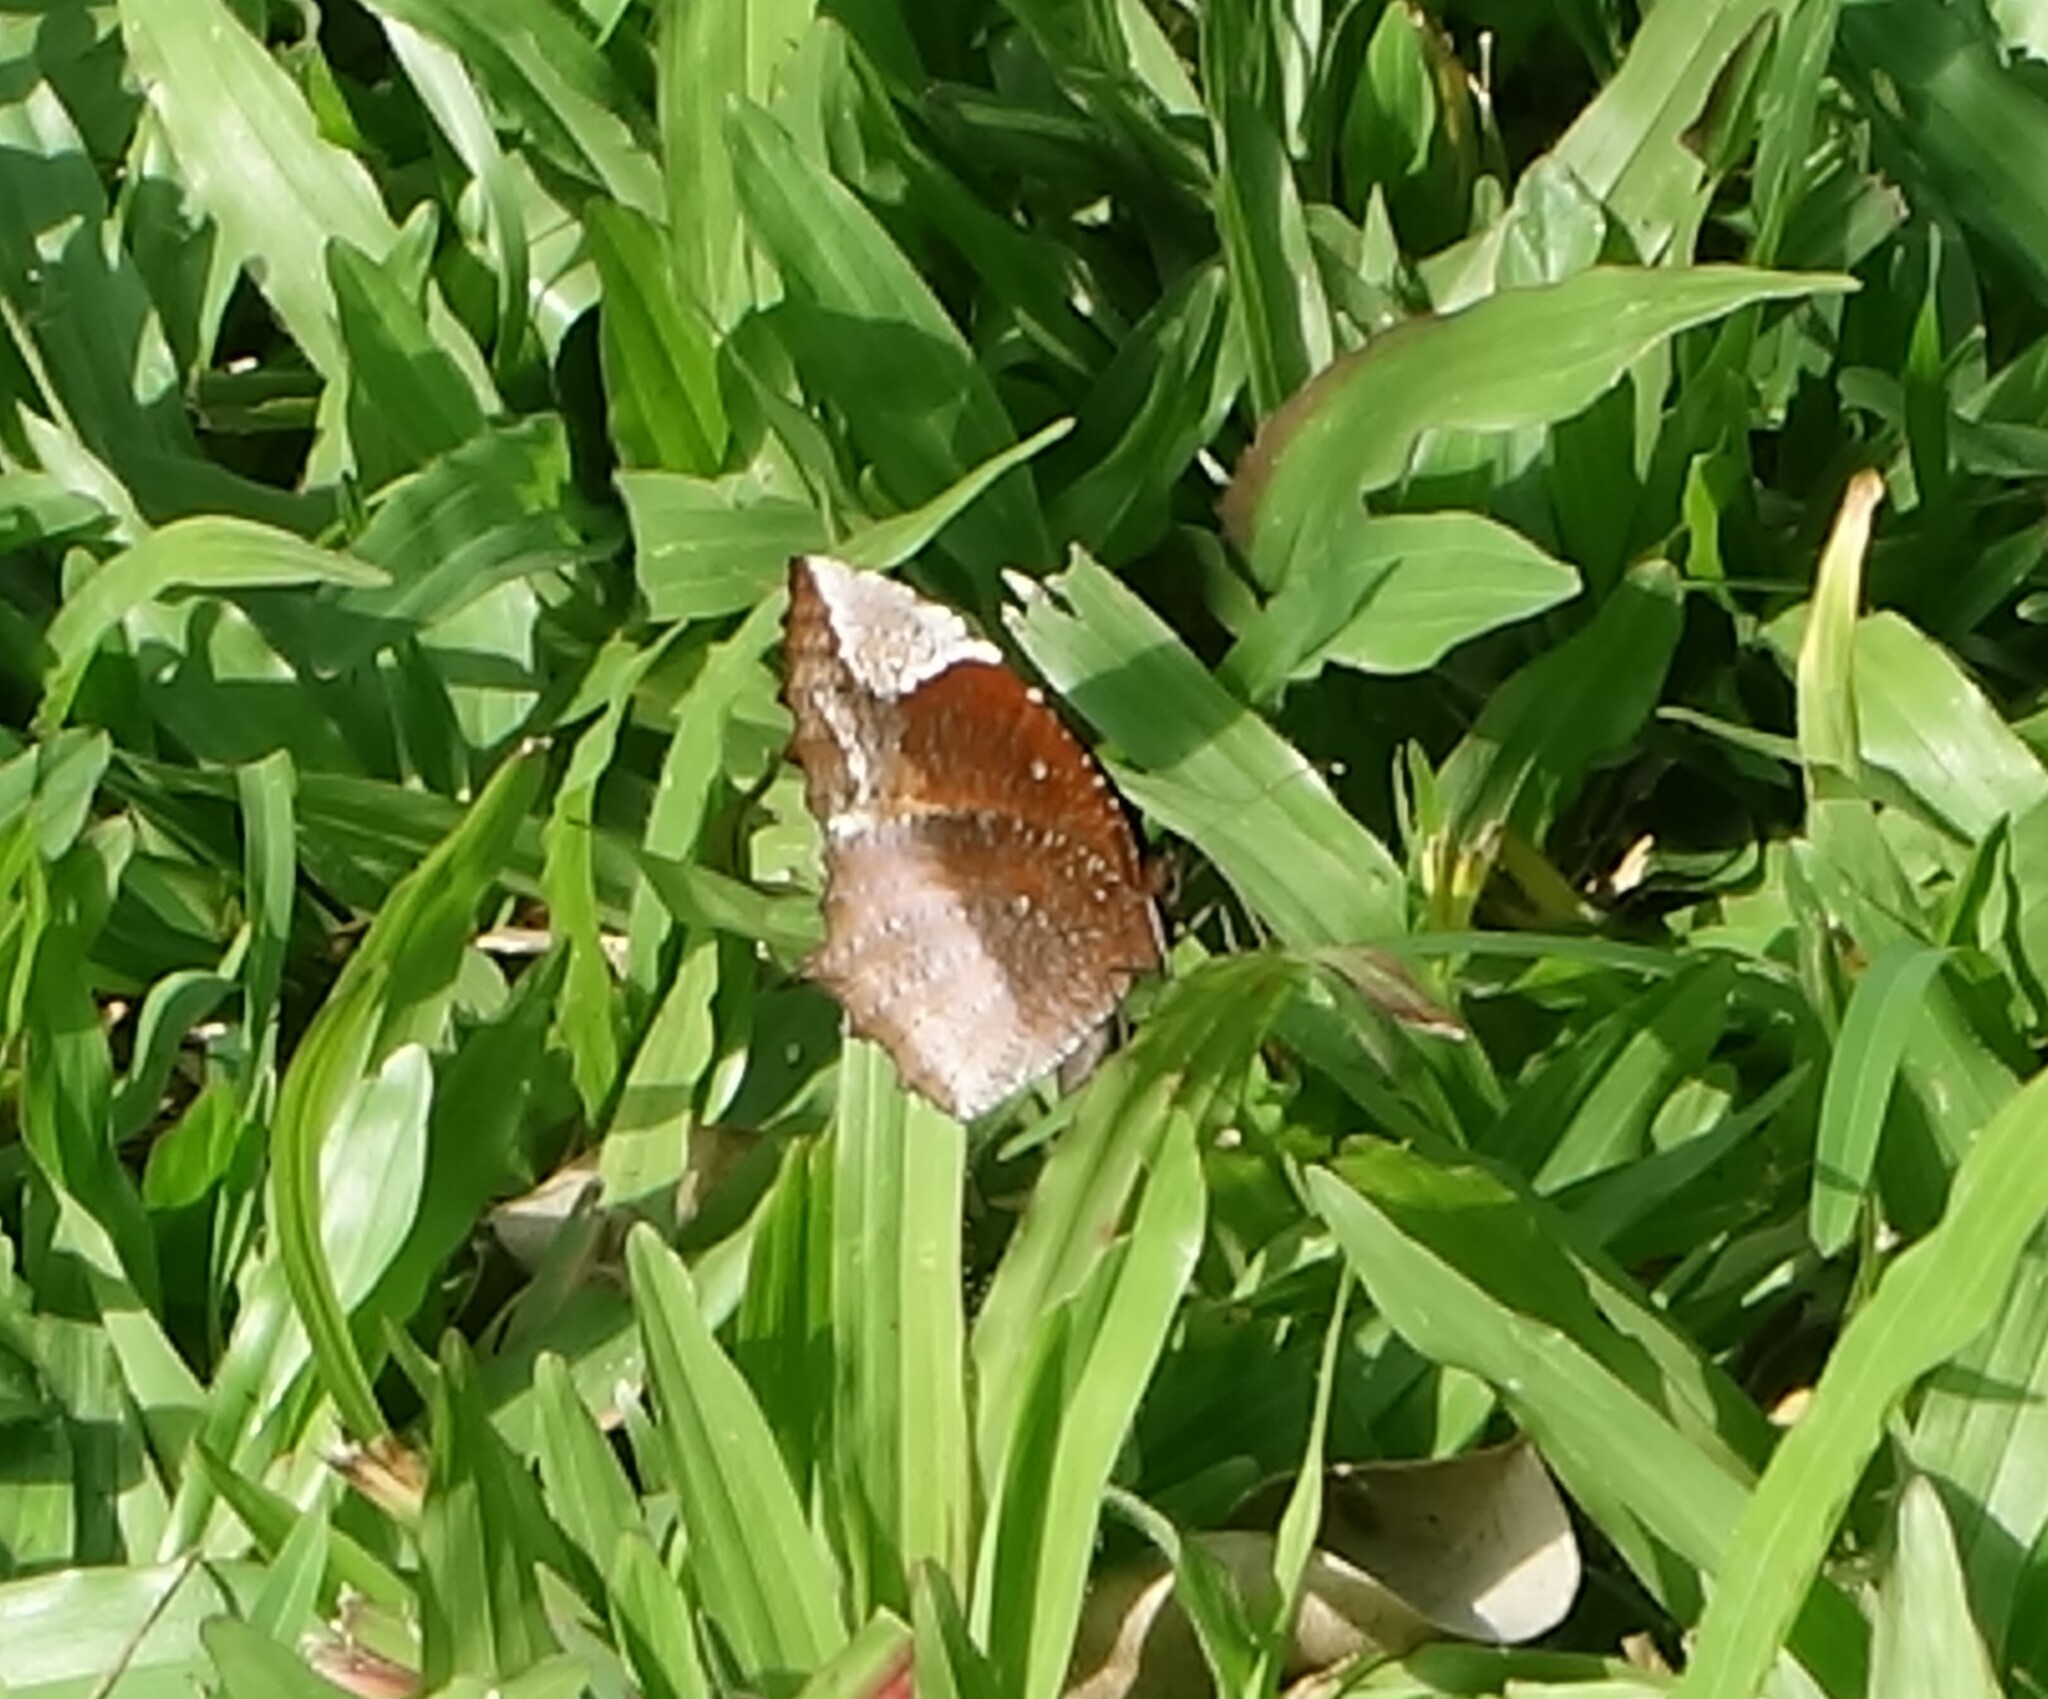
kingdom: Animalia
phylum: Arthropoda
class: Insecta
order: Lepidoptera
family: Nymphalidae
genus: Elymnias
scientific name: Elymnias caudata
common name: Tailed palmfly
